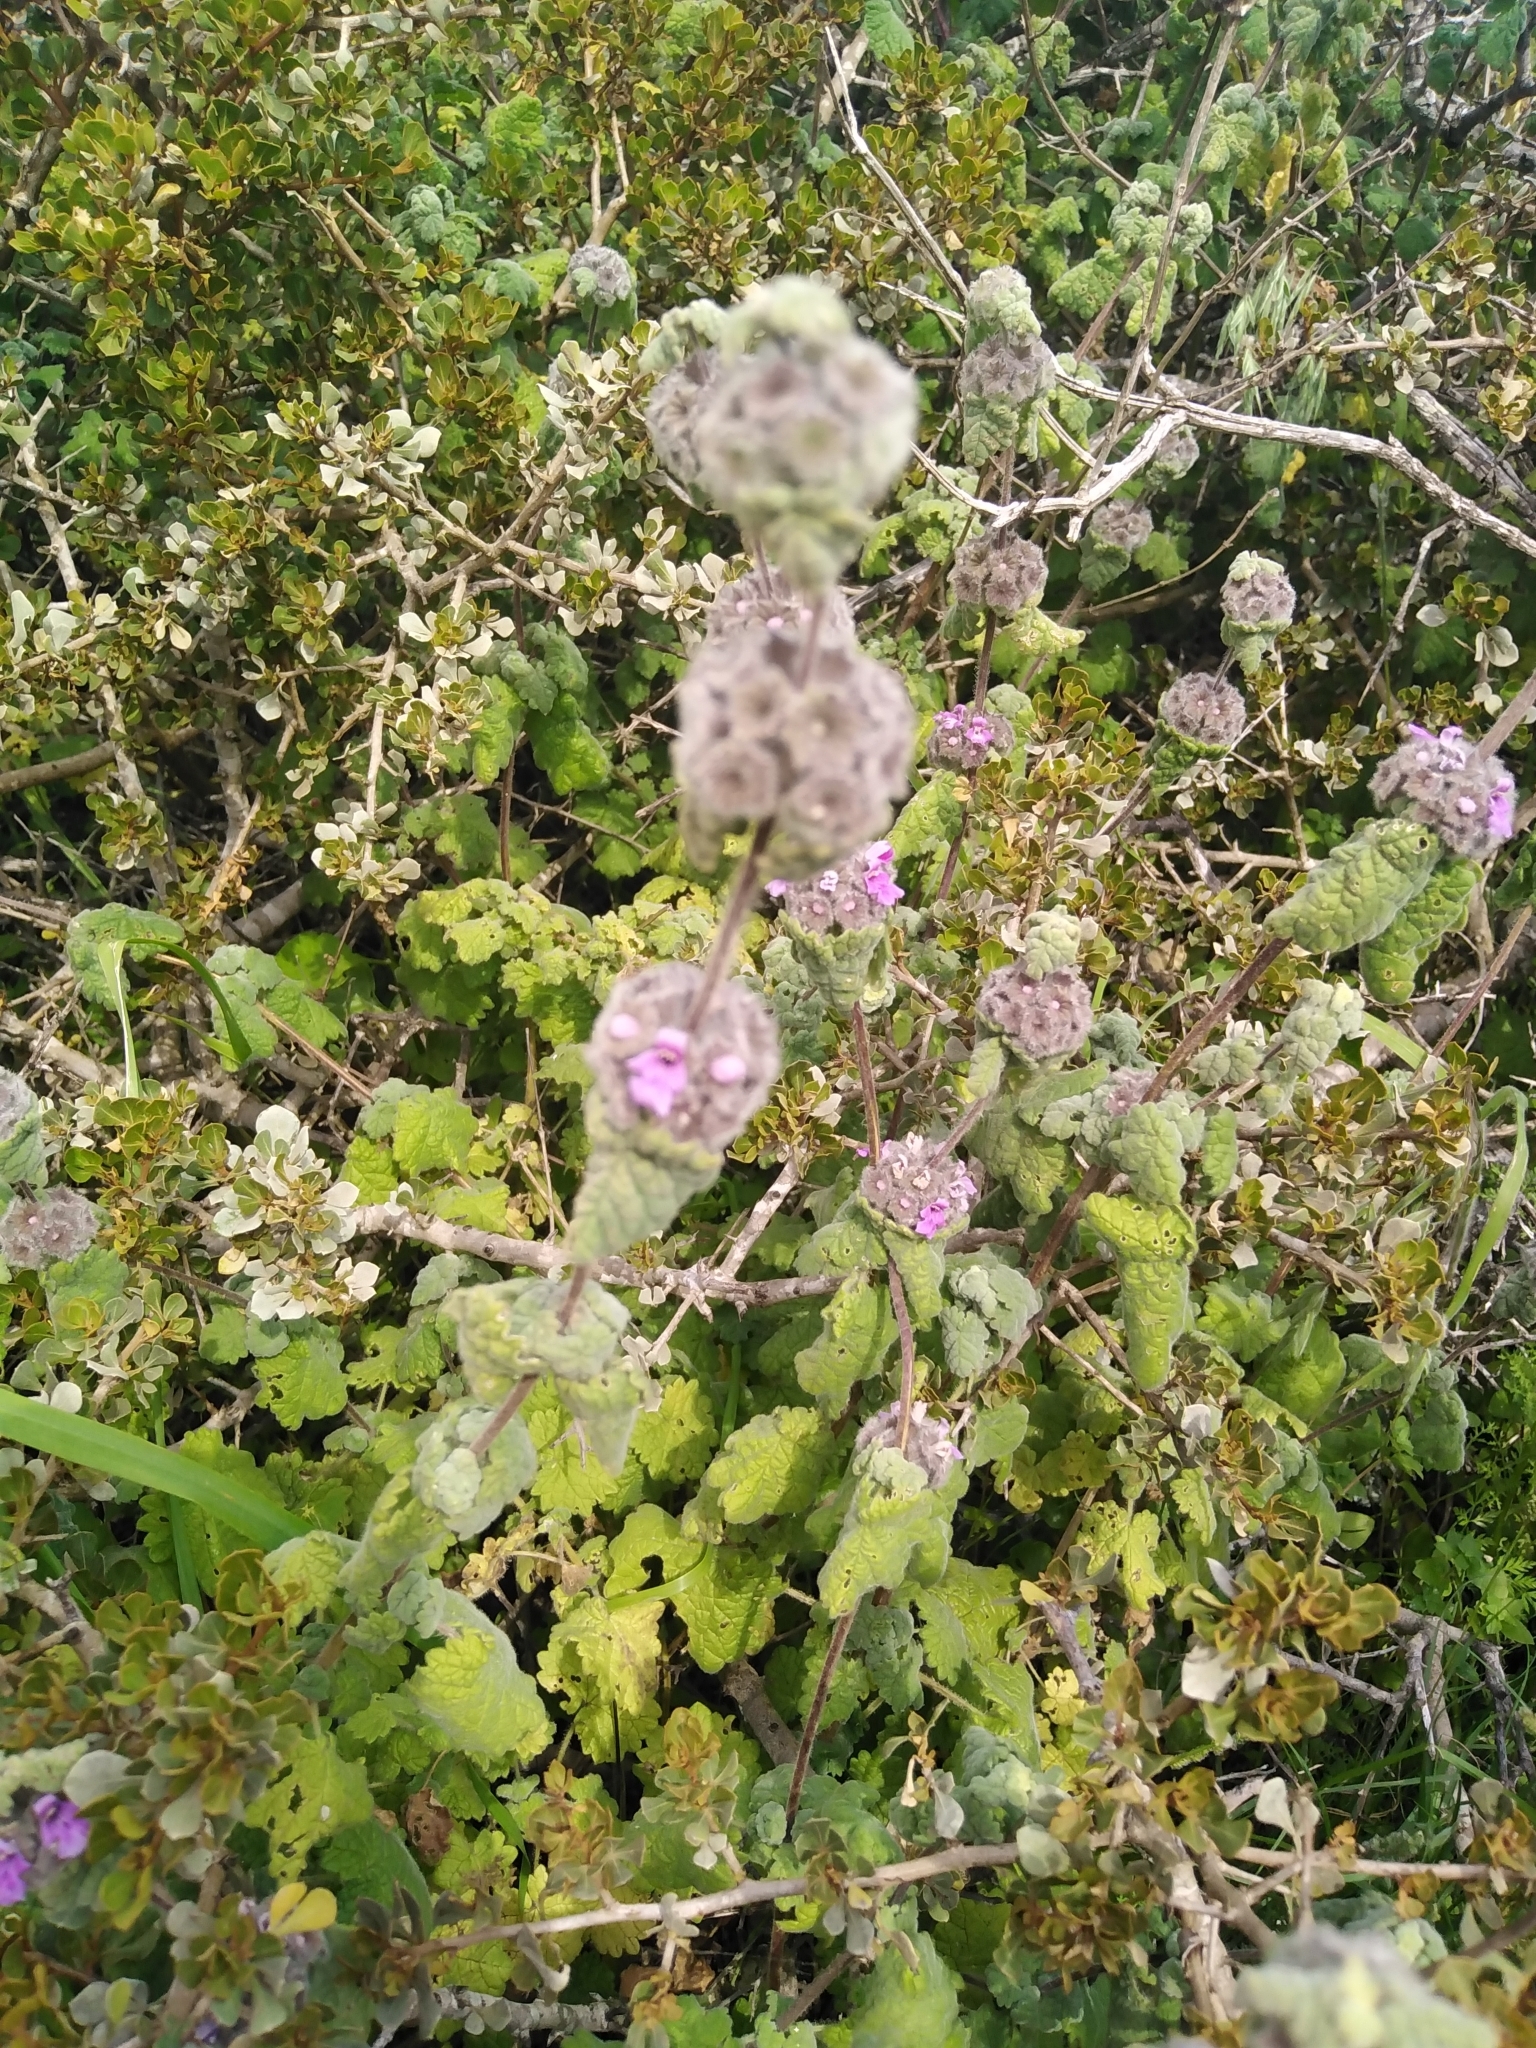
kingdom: Plantae
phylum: Tracheophyta
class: Magnoliopsida
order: Lamiales
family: Lamiaceae
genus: Pseudodictamnus
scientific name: Pseudodictamnus africanus
